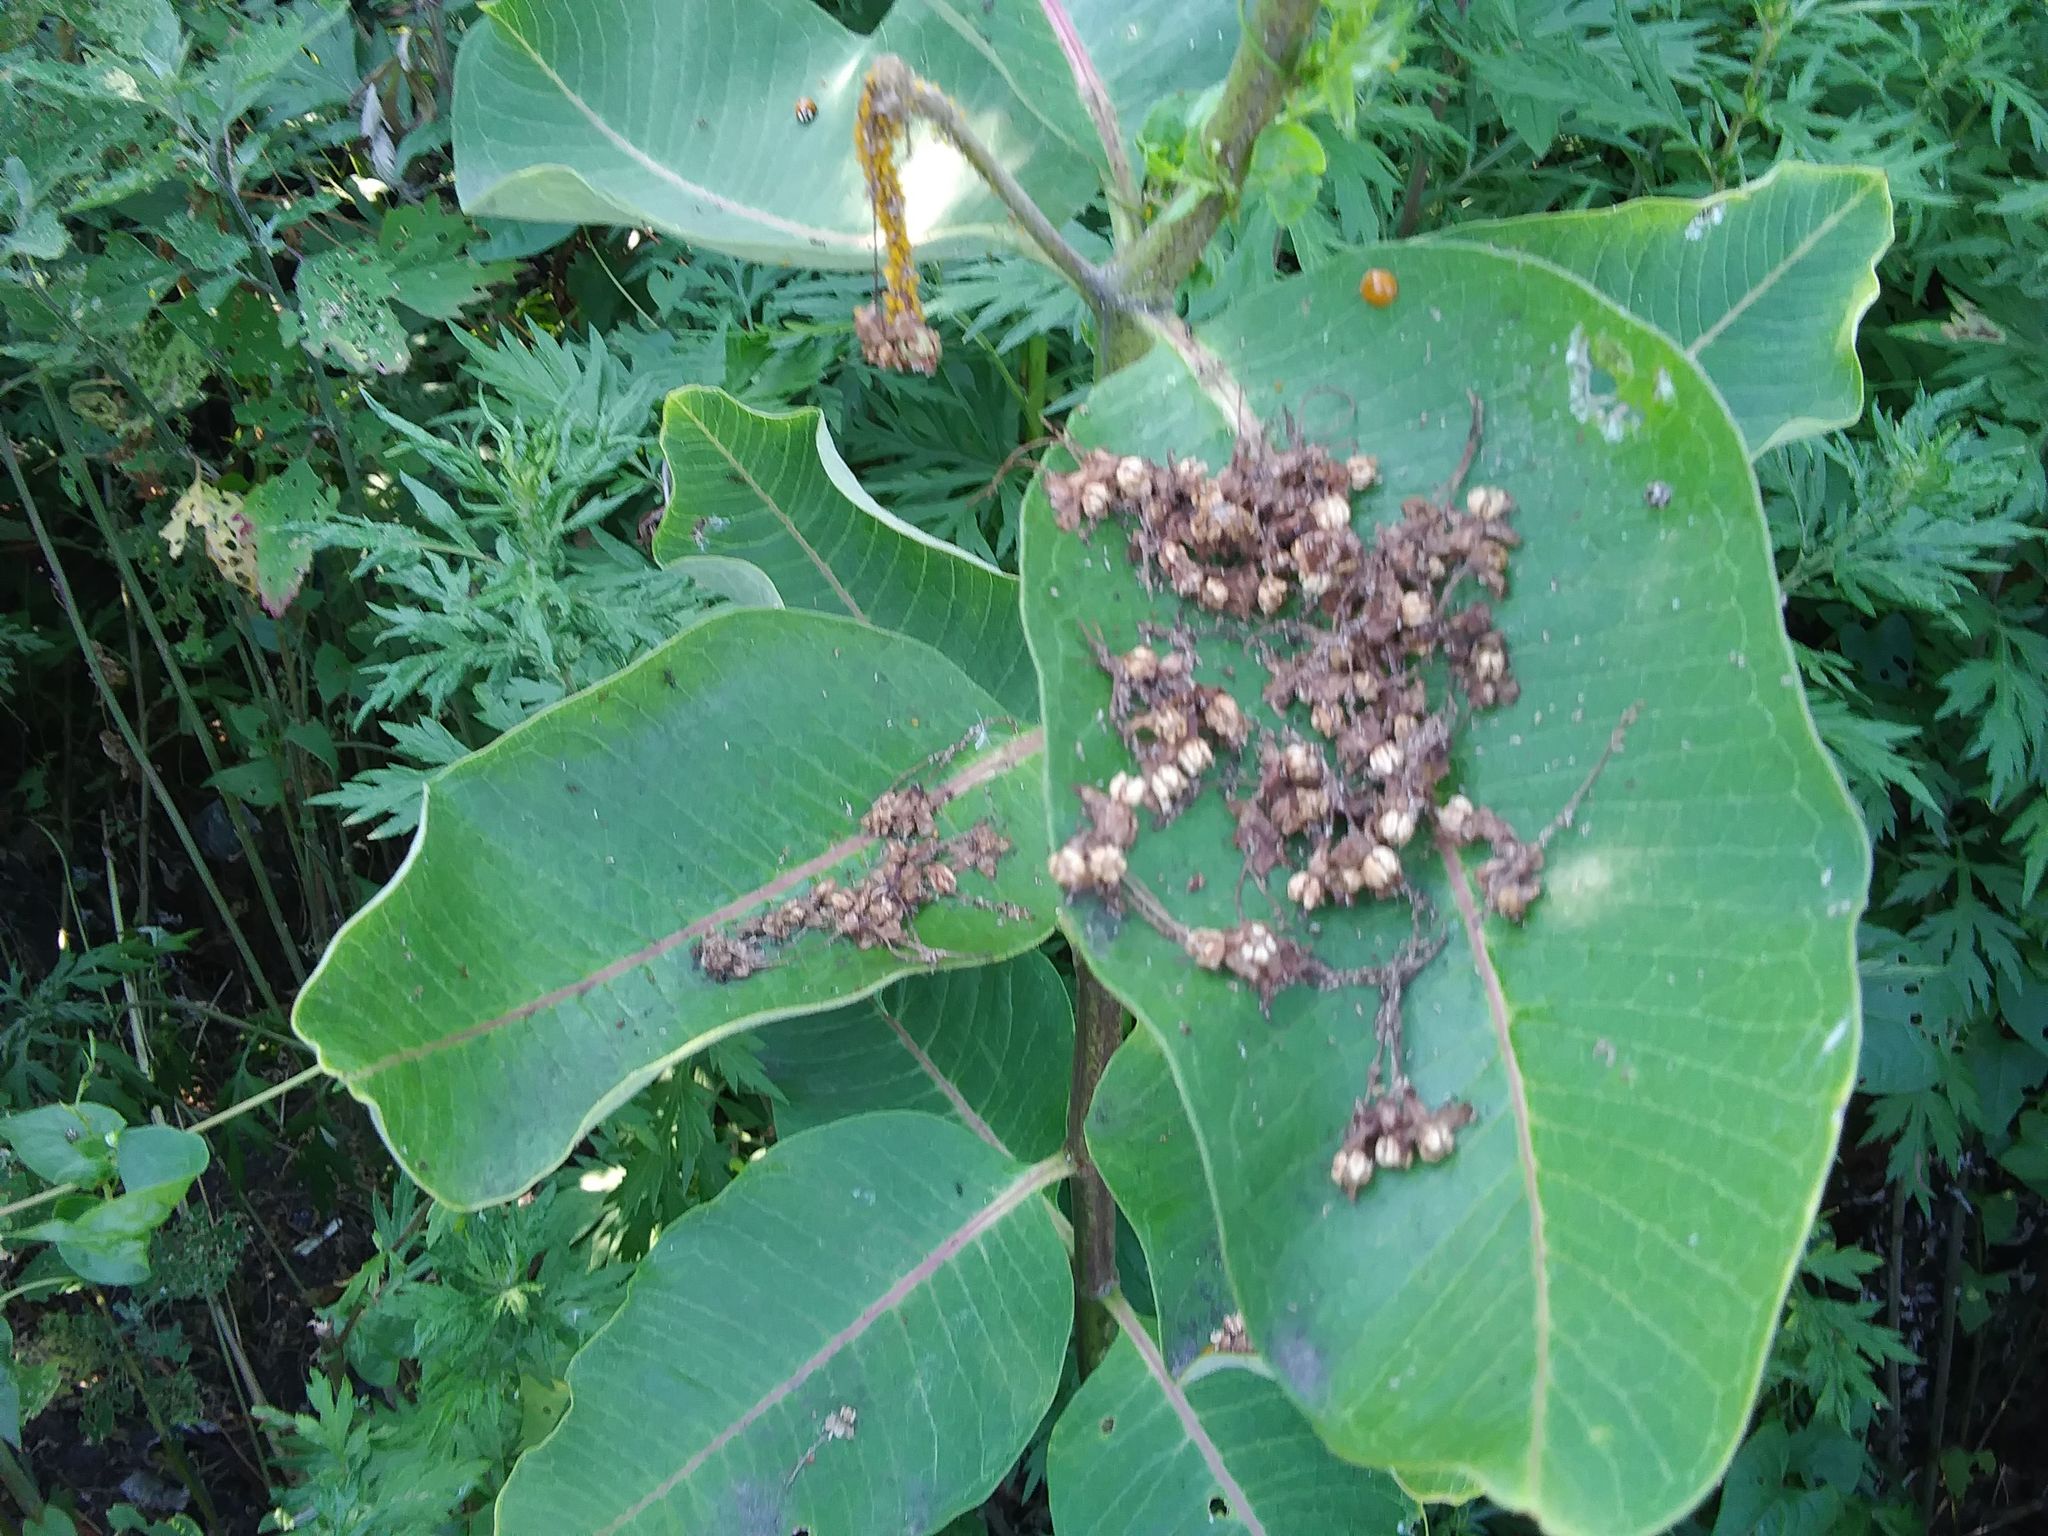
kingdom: Plantae
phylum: Tracheophyta
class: Magnoliopsida
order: Gentianales
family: Apocynaceae
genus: Asclepias
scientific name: Asclepias syriaca
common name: Common milkweed
